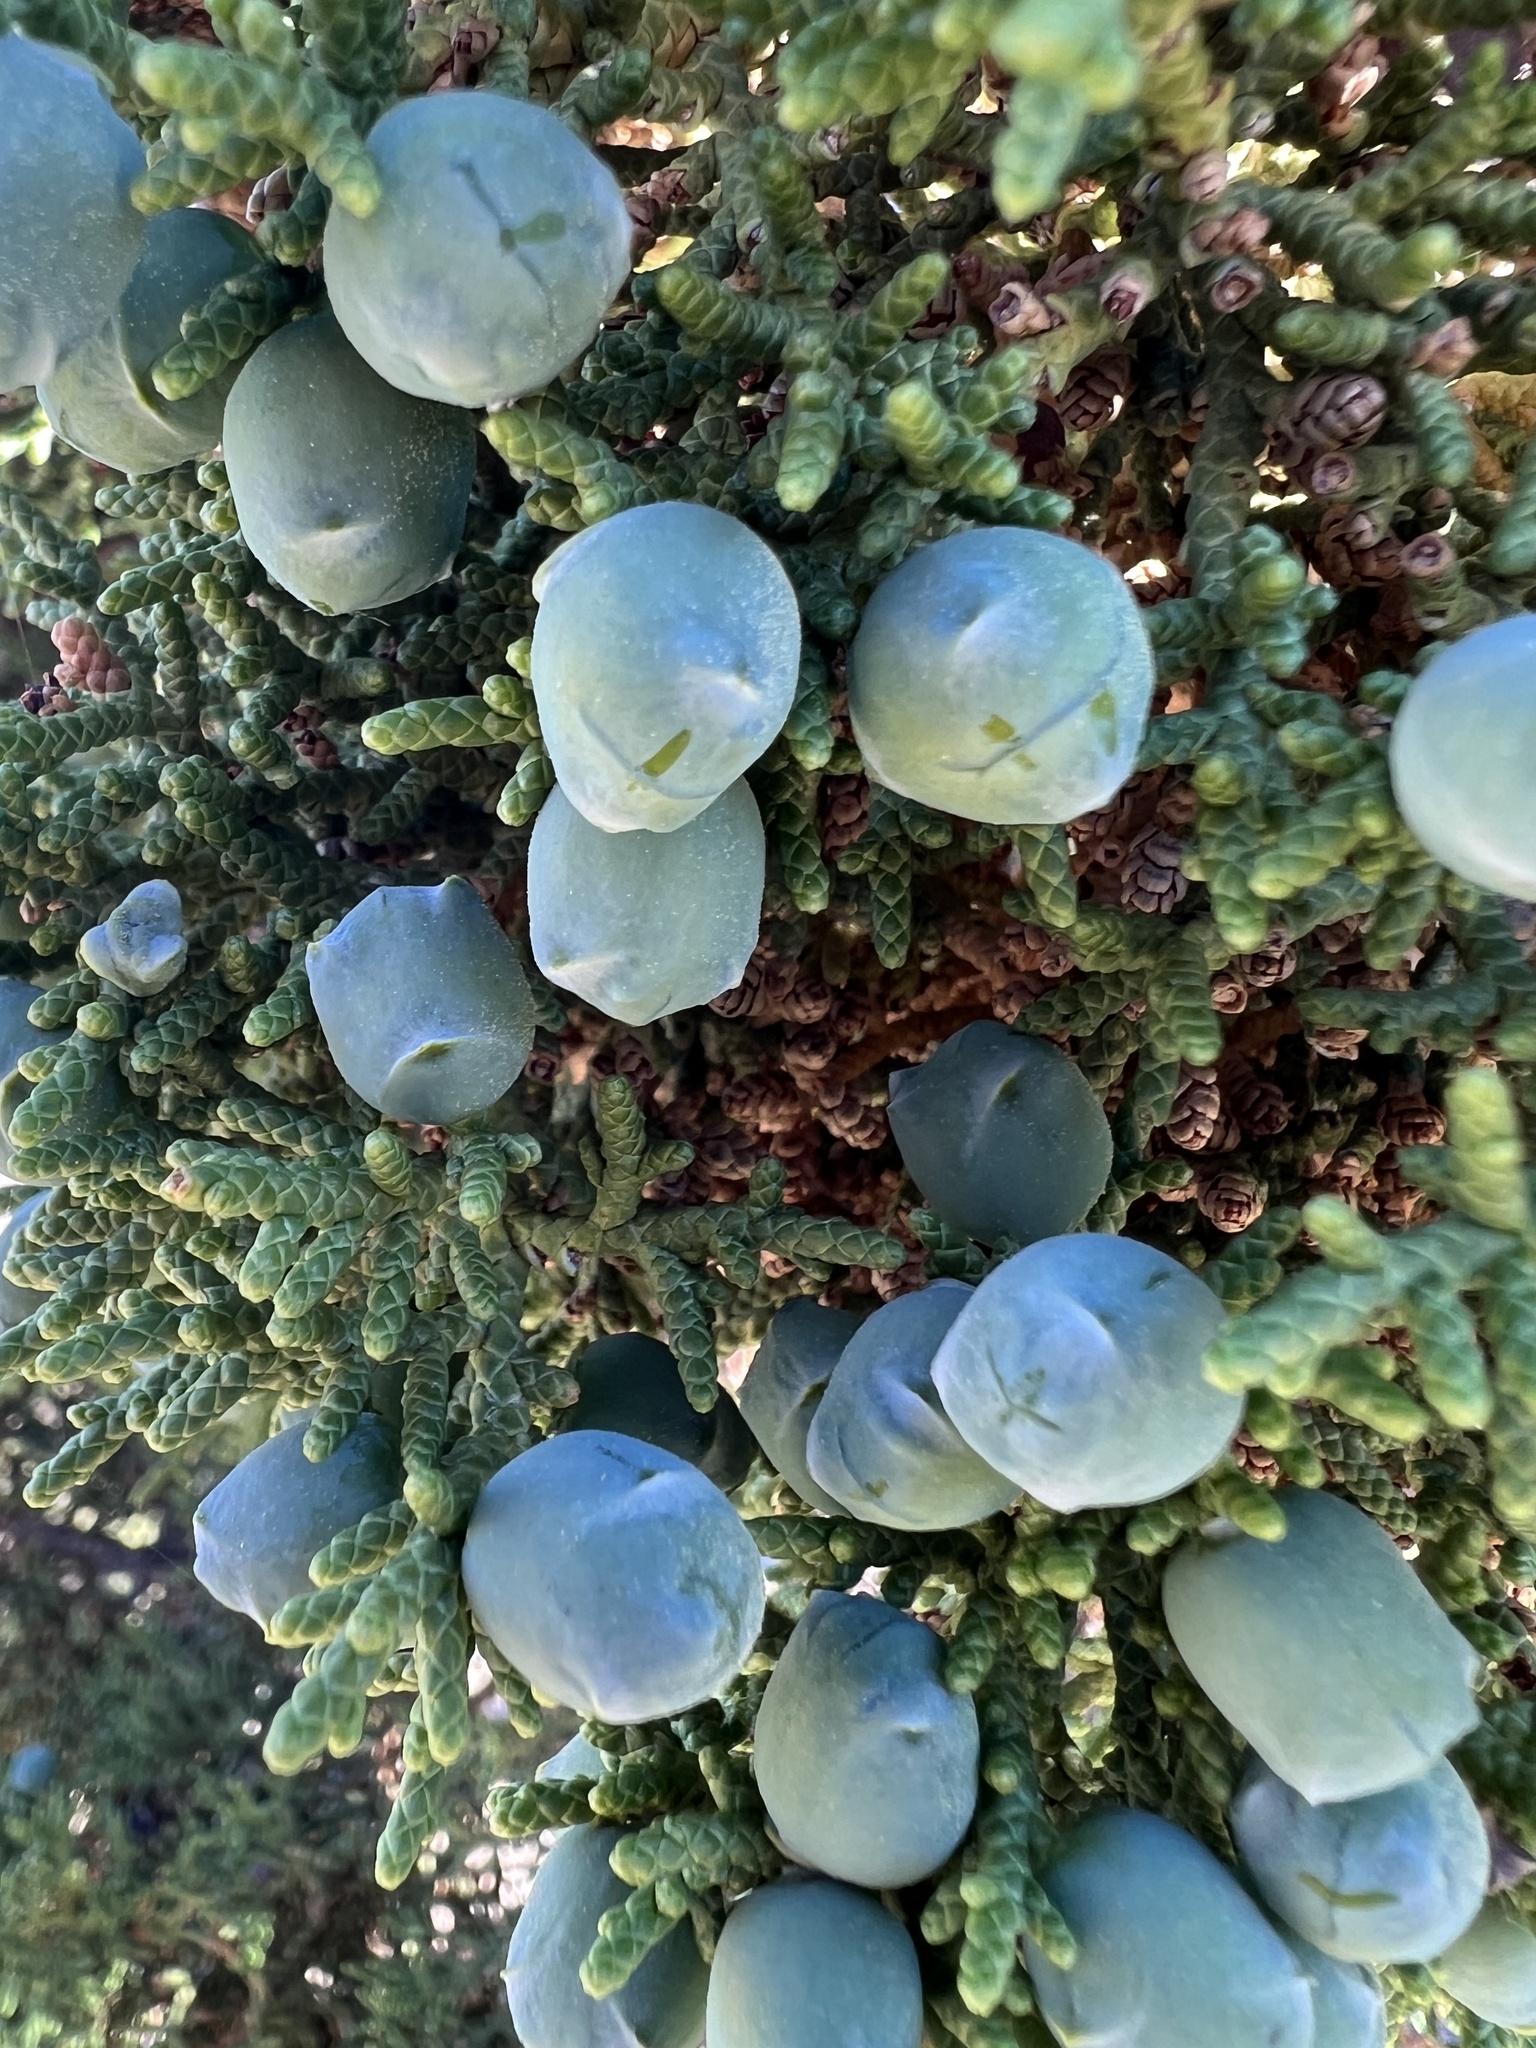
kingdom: Plantae
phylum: Tracheophyta
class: Pinopsida
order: Pinales
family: Cupressaceae
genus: Juniperus
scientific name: Juniperus osteosperma
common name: Utah juniper
